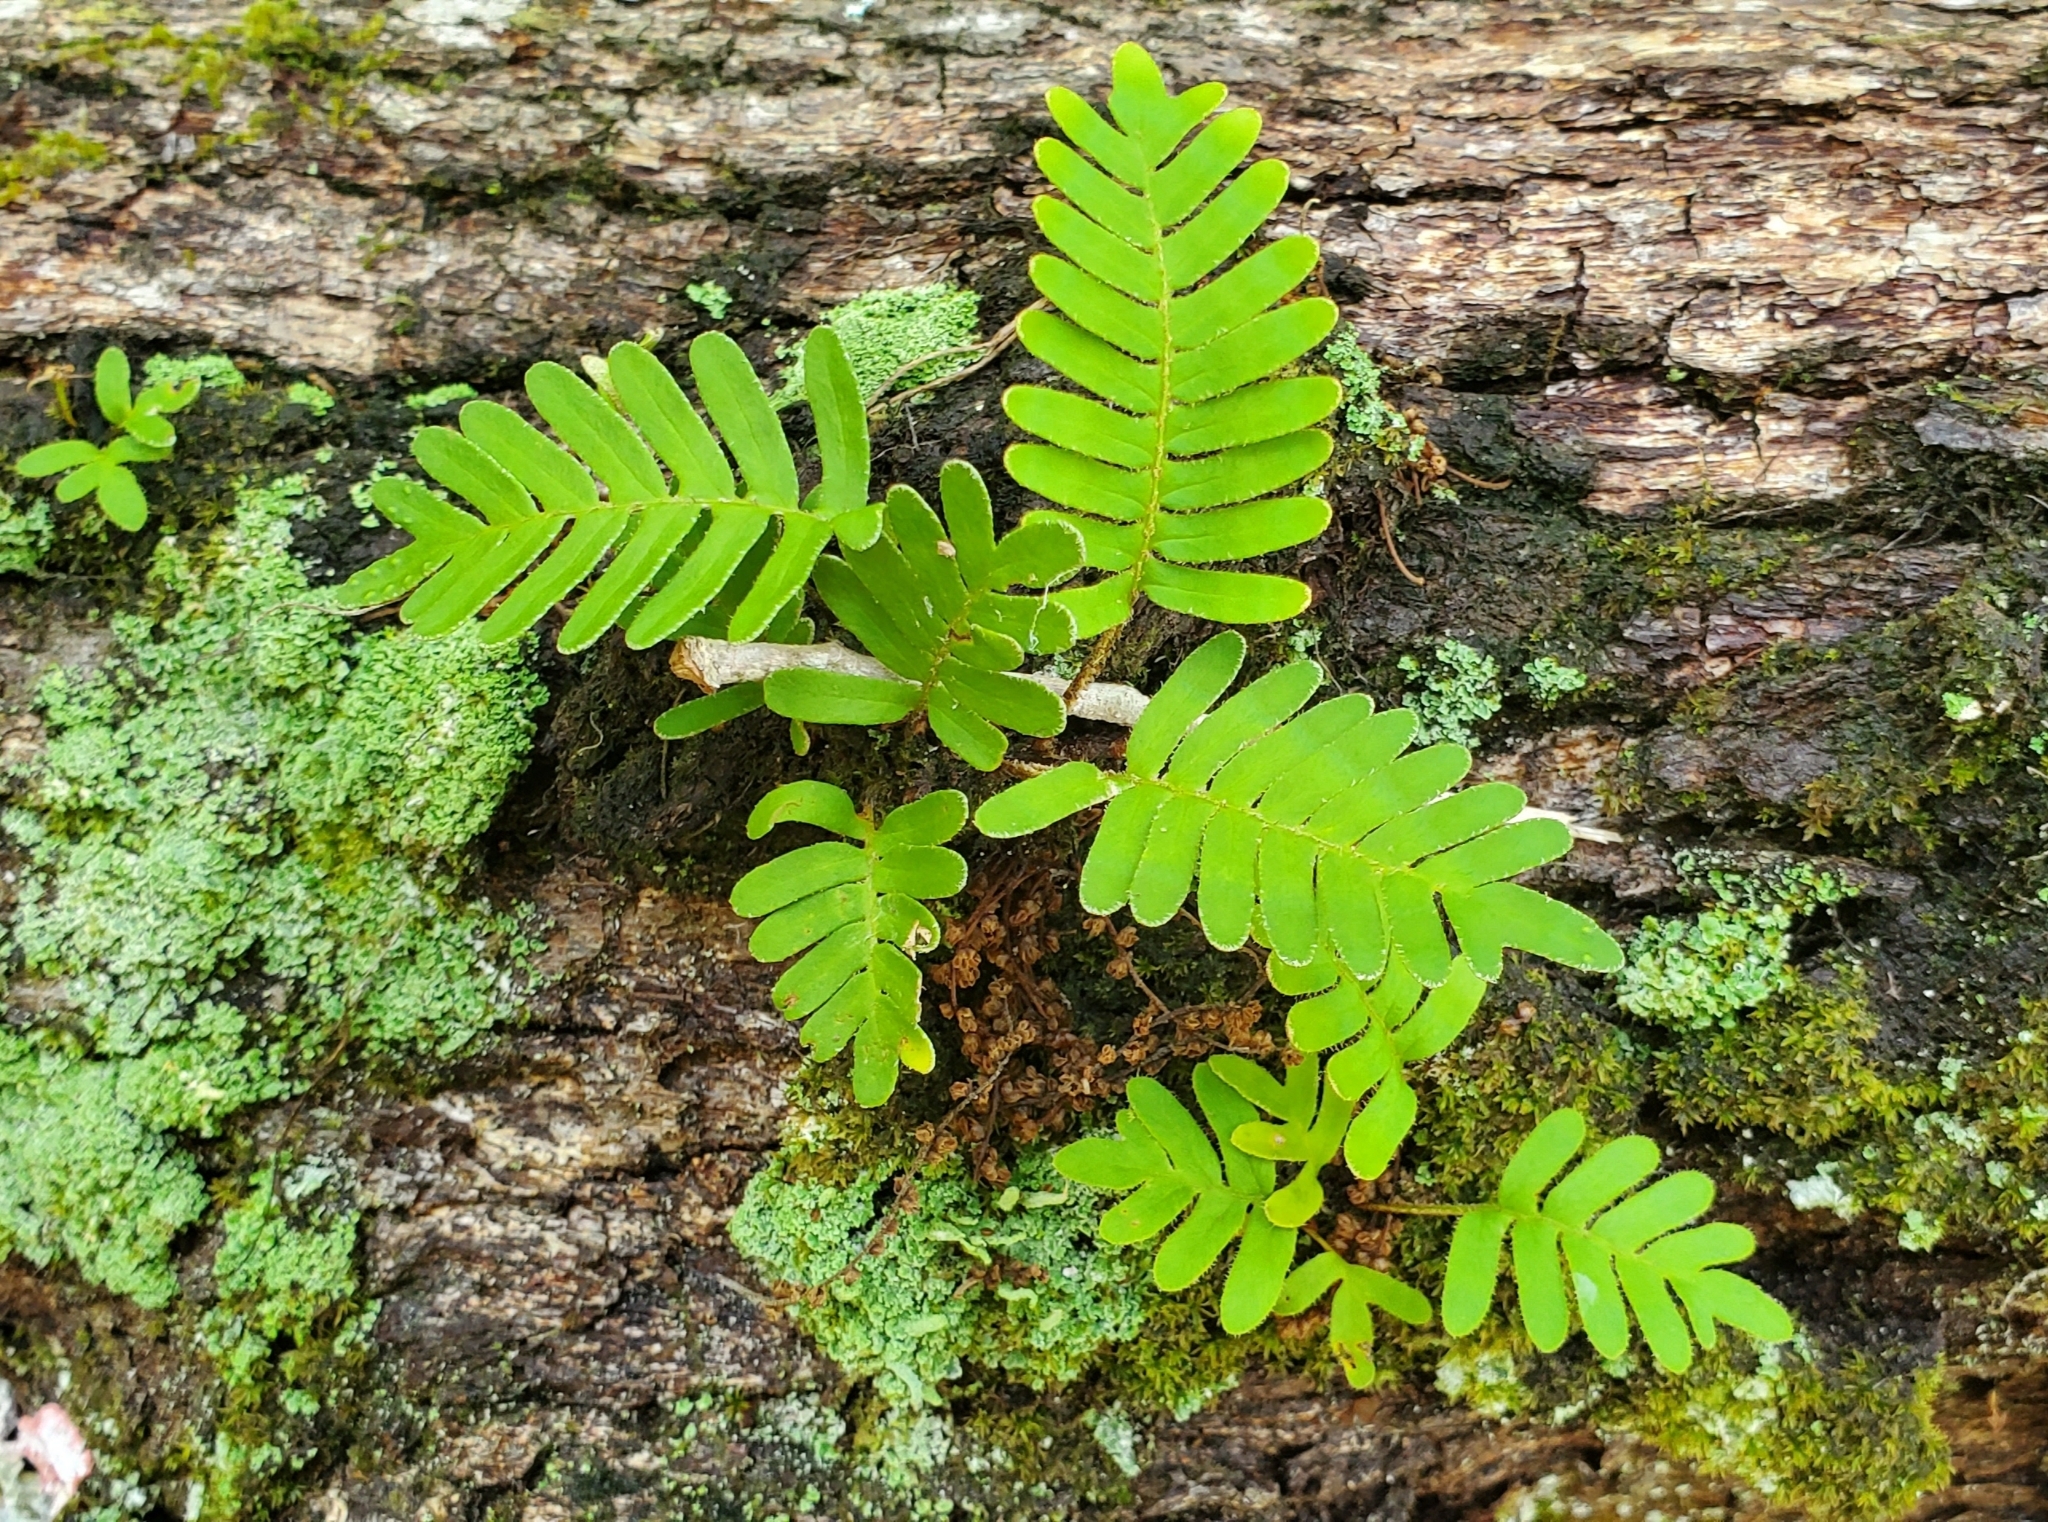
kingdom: Plantae
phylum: Tracheophyta
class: Polypodiopsida
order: Polypodiales
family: Polypodiaceae
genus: Pleopeltis
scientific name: Pleopeltis michauxiana
